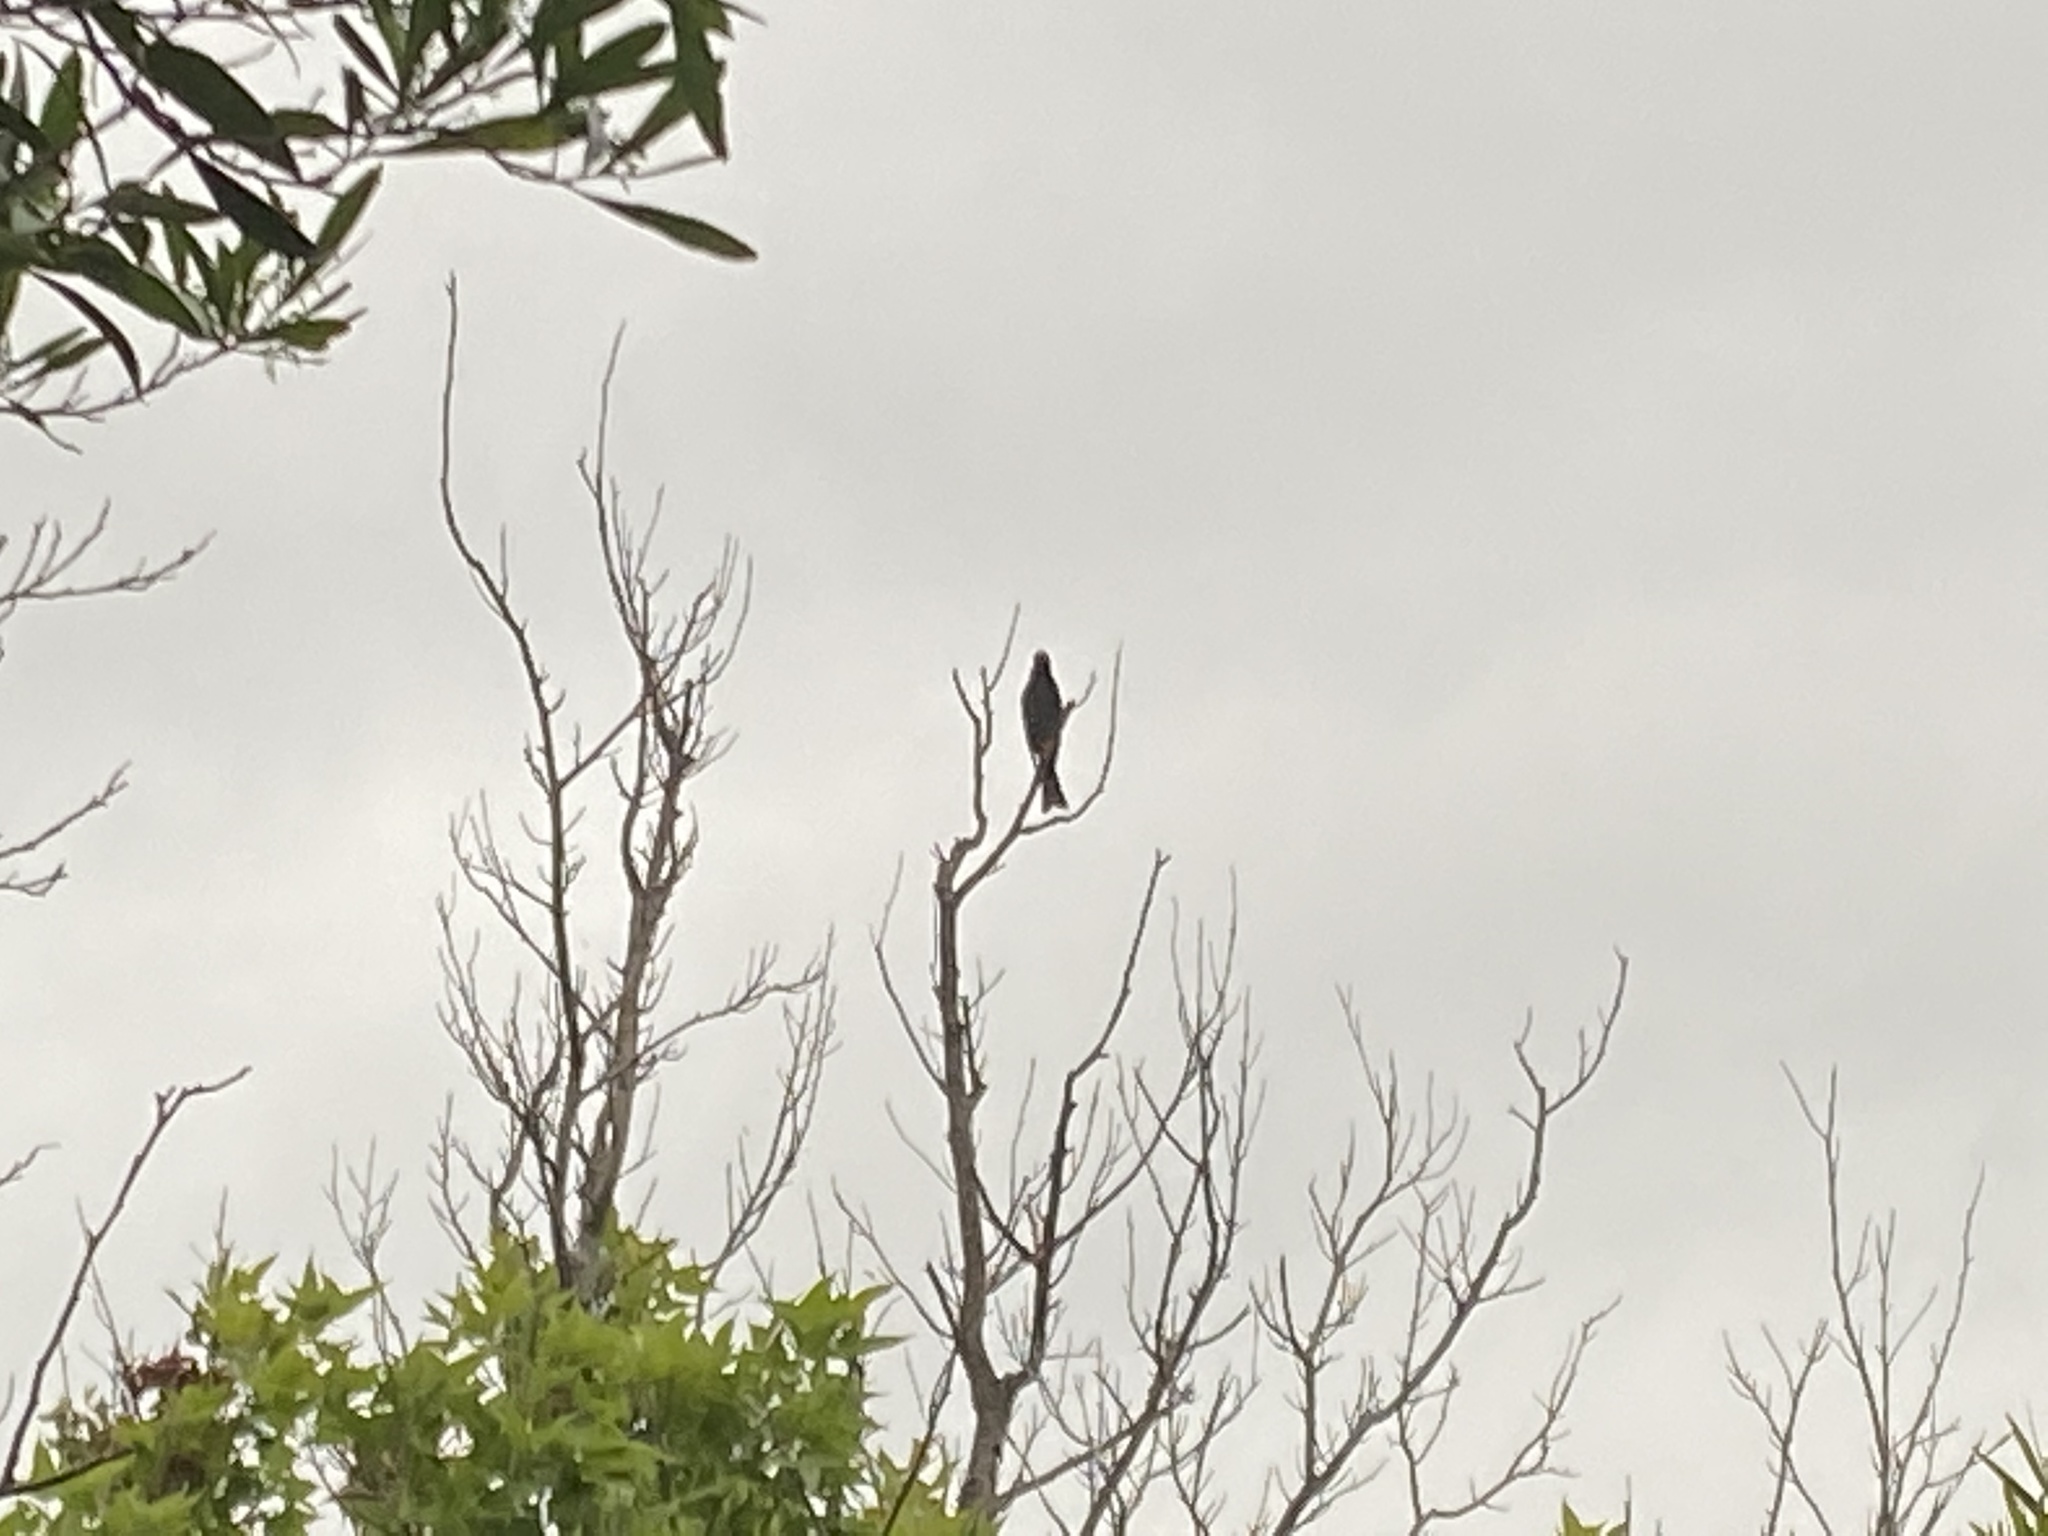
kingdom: Animalia
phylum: Chordata
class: Aves
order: Passeriformes
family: Pycnonotidae
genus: Hypsipetes
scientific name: Hypsipetes leucocephalus
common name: Black bulbul
